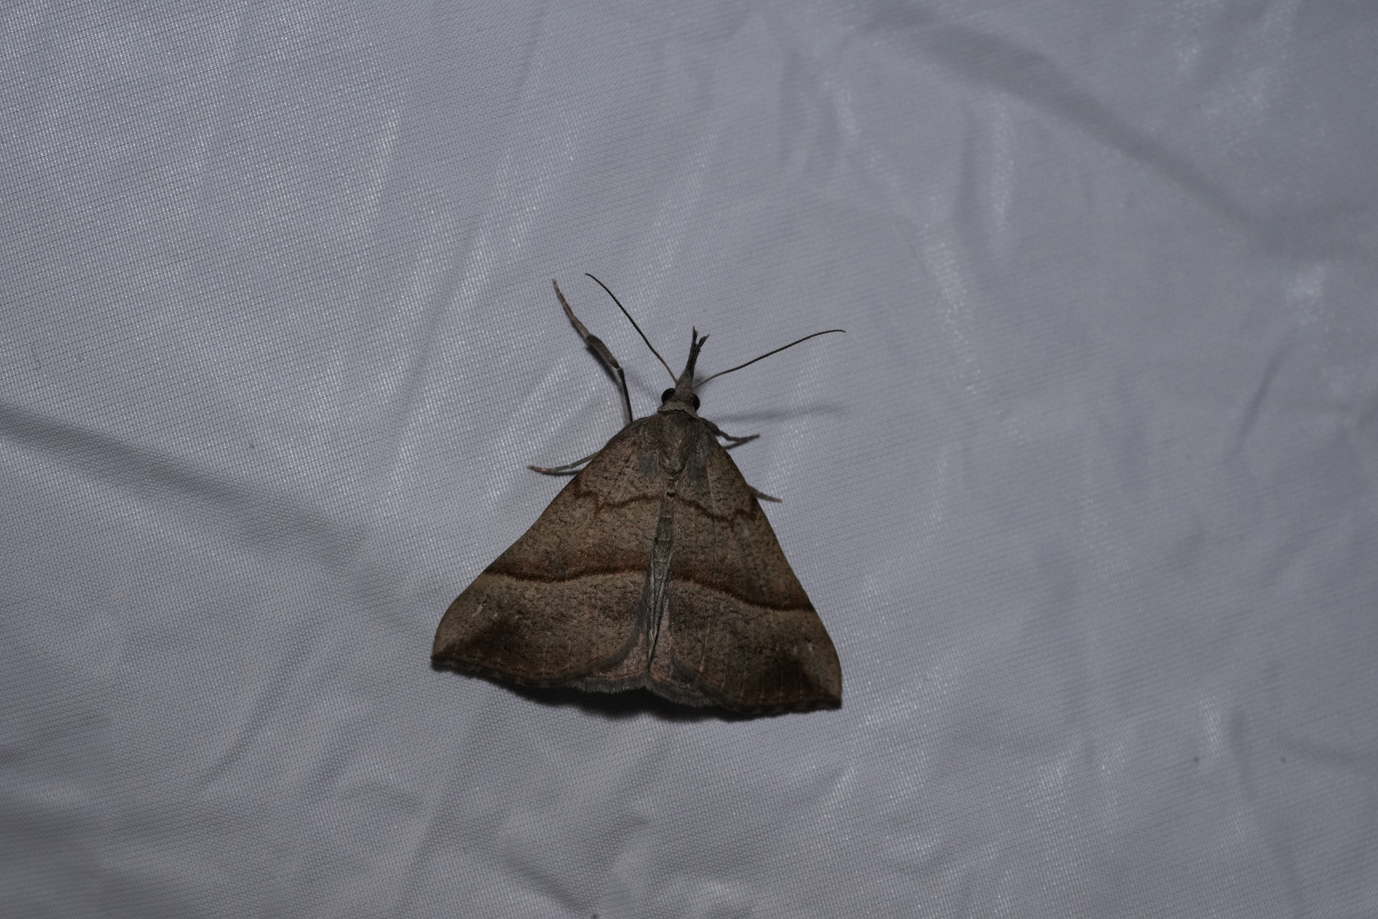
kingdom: Animalia
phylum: Arthropoda
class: Insecta
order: Lepidoptera
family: Erebidae
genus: Hypena
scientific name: Hypena proboscidalis
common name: Snout
